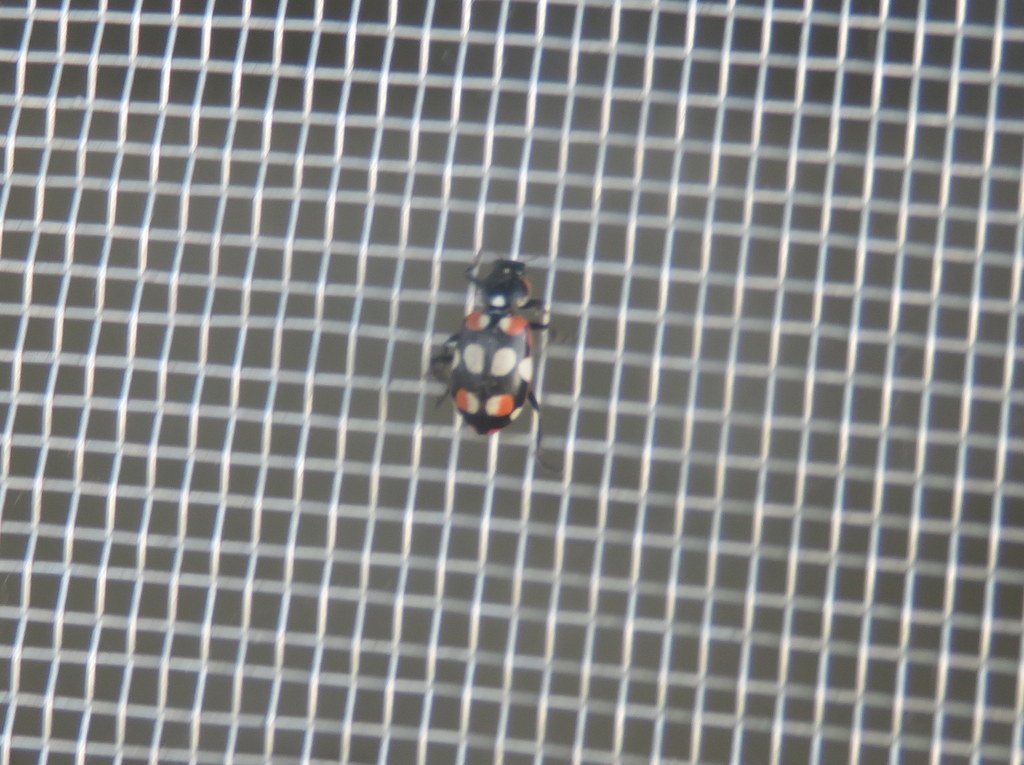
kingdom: Animalia
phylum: Arthropoda
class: Insecta
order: Coleoptera
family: Coccinellidae
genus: Eriopis
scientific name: Eriopis connexa
